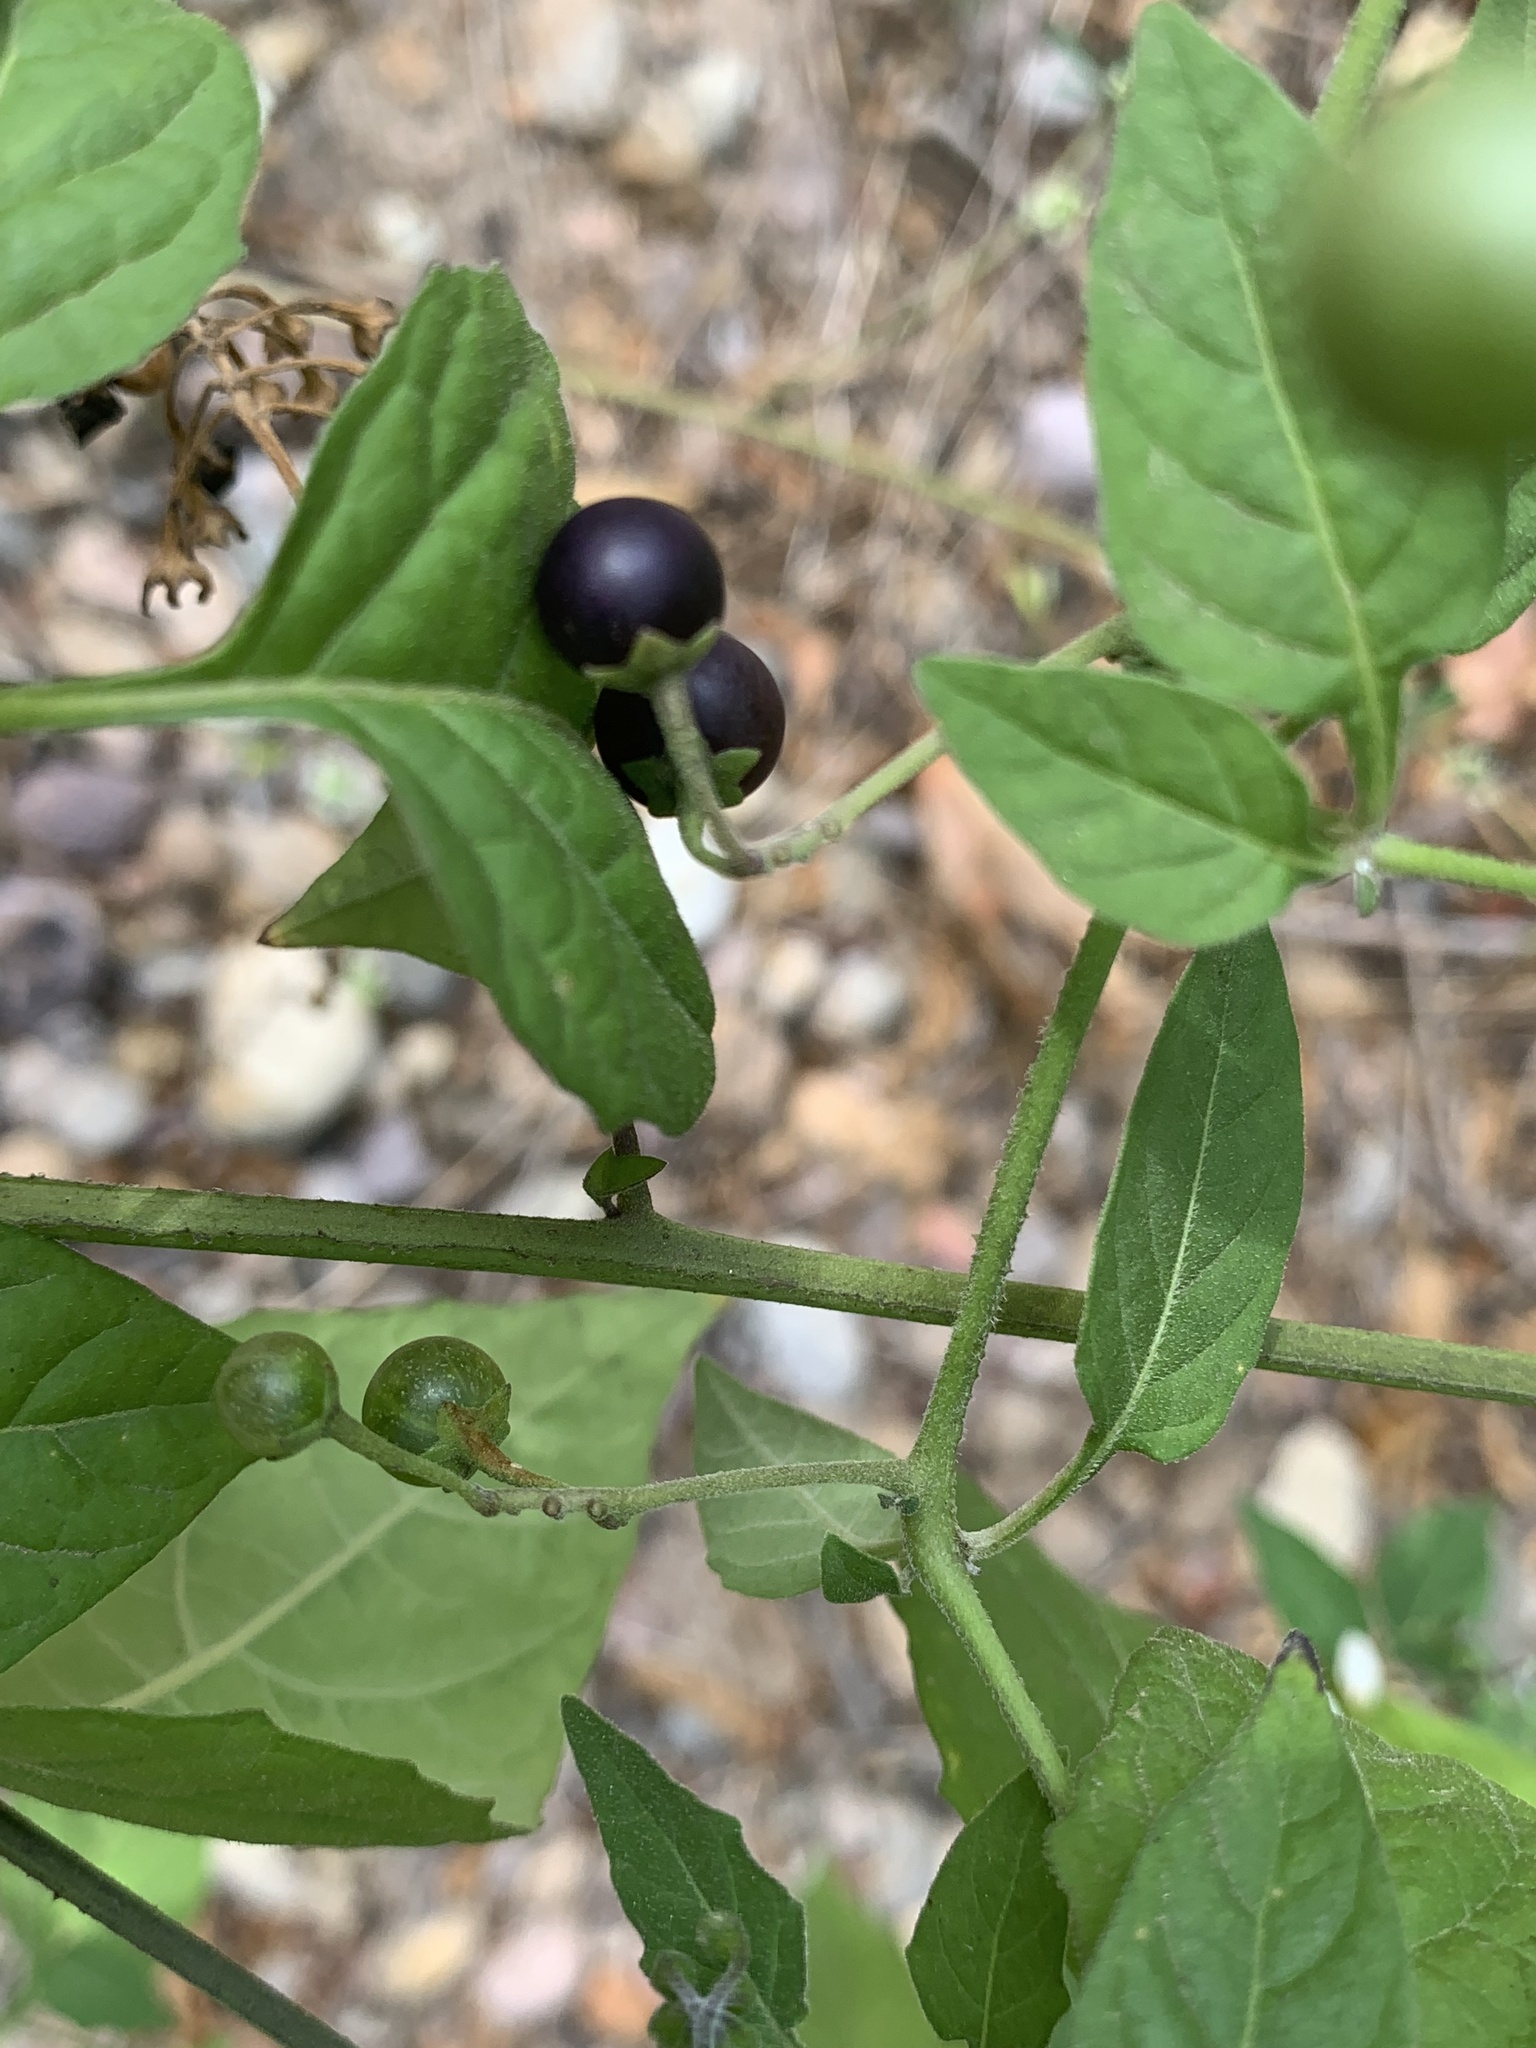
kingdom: Plantae
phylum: Tracheophyta
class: Magnoliopsida
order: Solanales
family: Solanaceae
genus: Solanum
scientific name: Solanum douglasii
